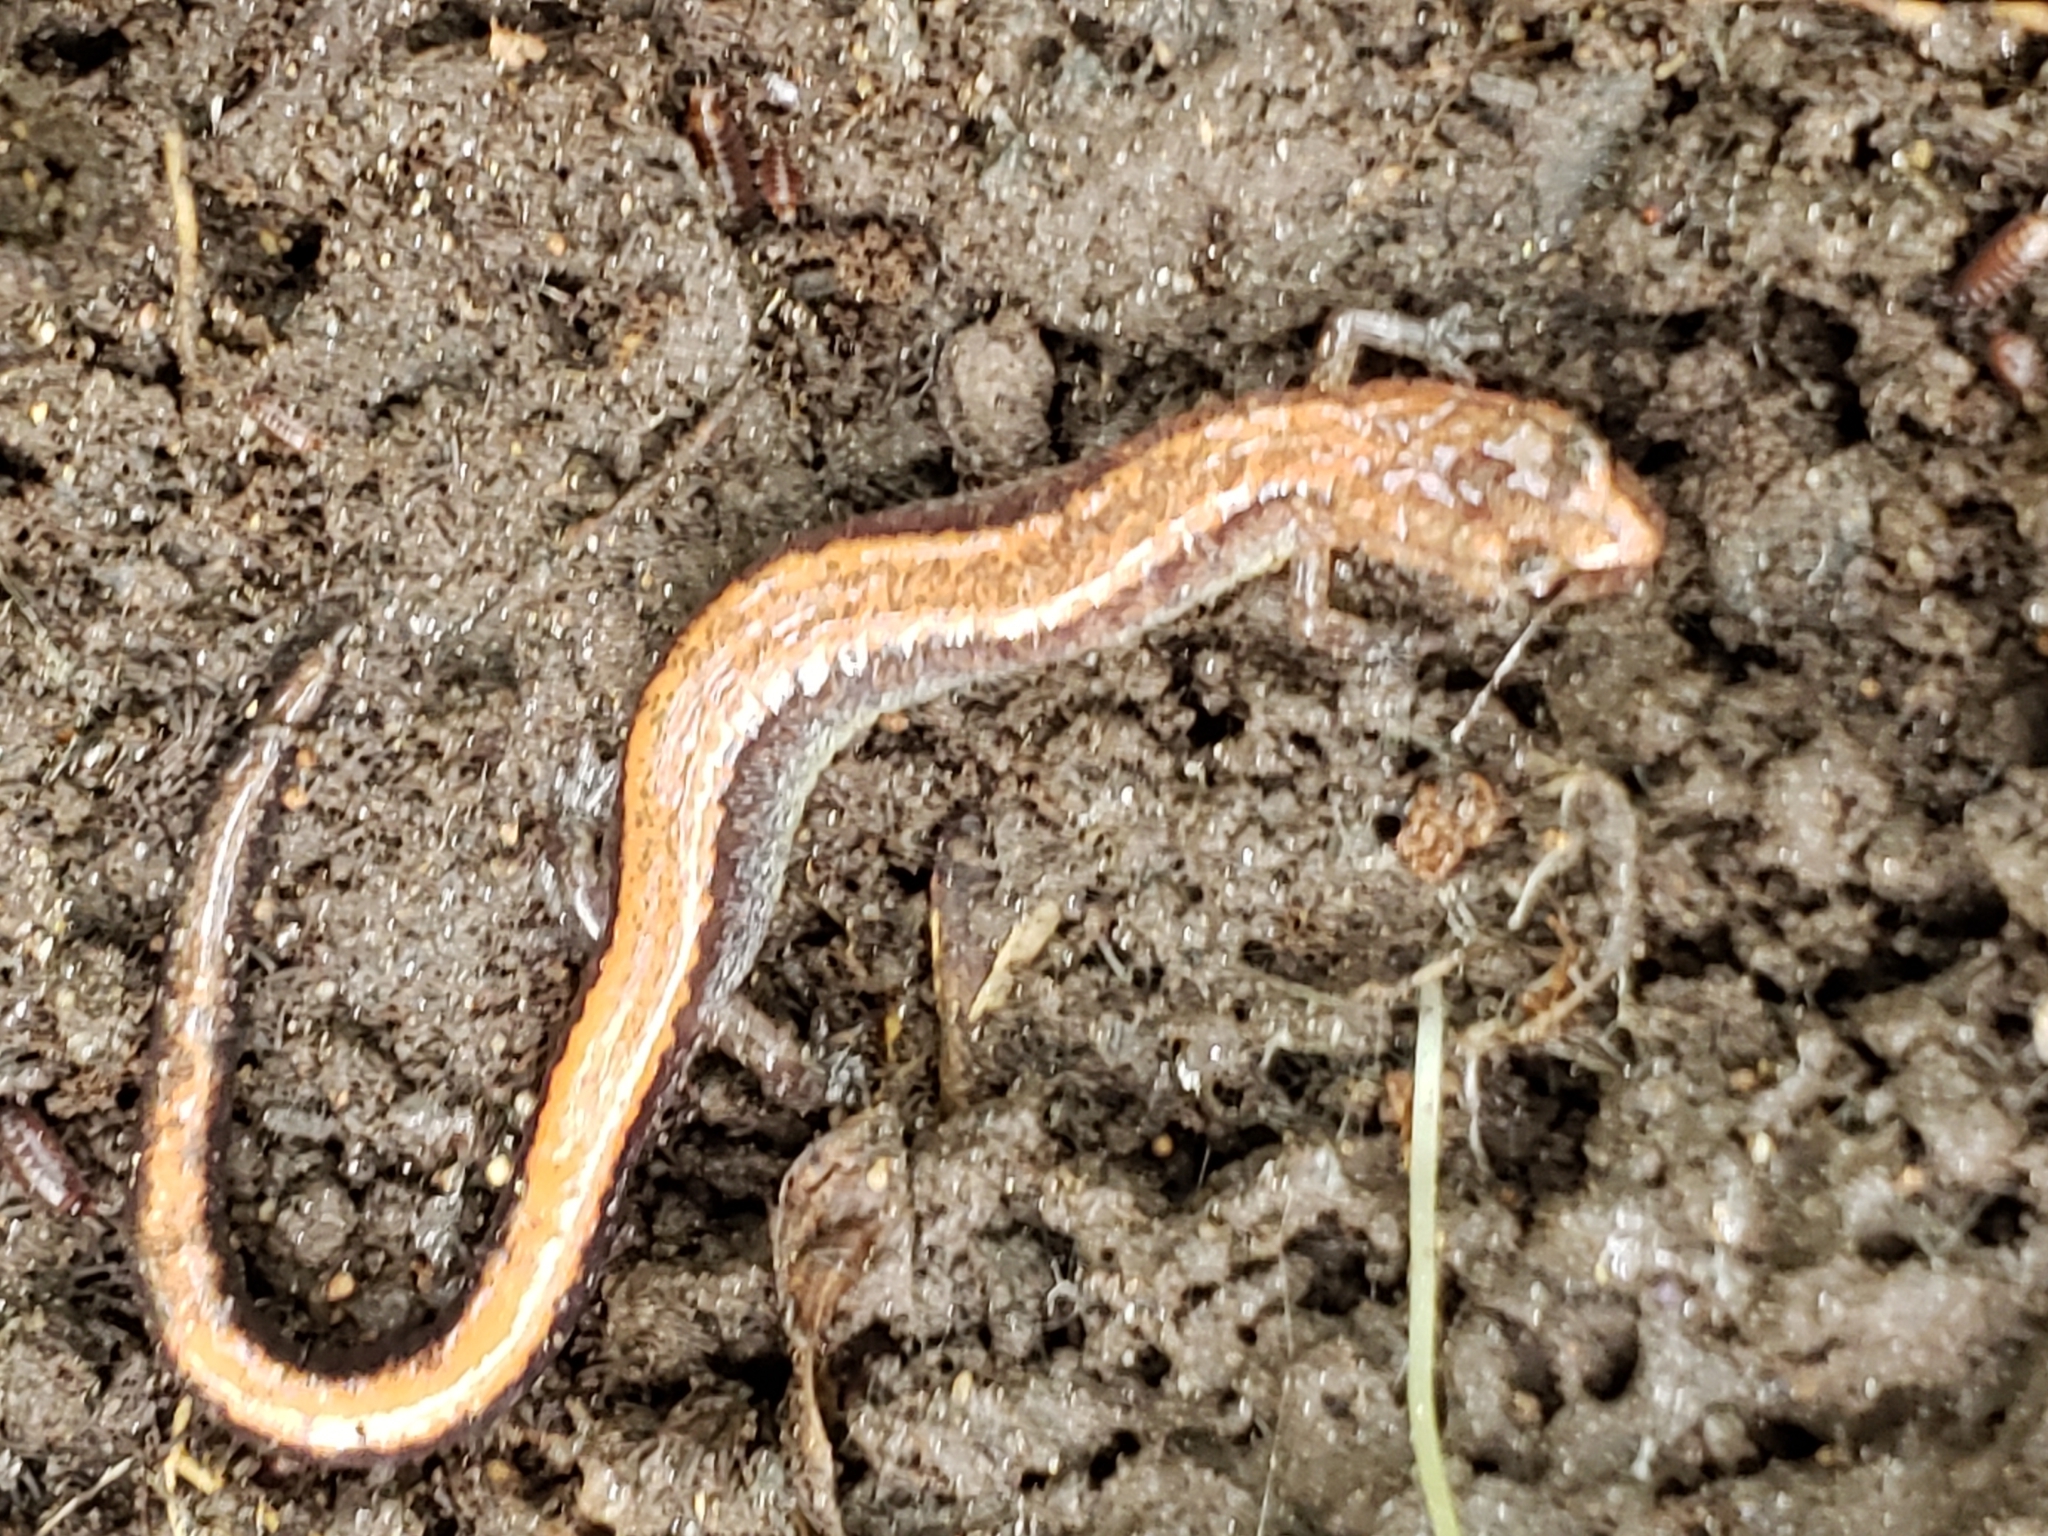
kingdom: Animalia
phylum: Chordata
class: Amphibia
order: Caudata
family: Plethodontidae
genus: Plethodon
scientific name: Plethodon cinereus
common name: Redback salamander
